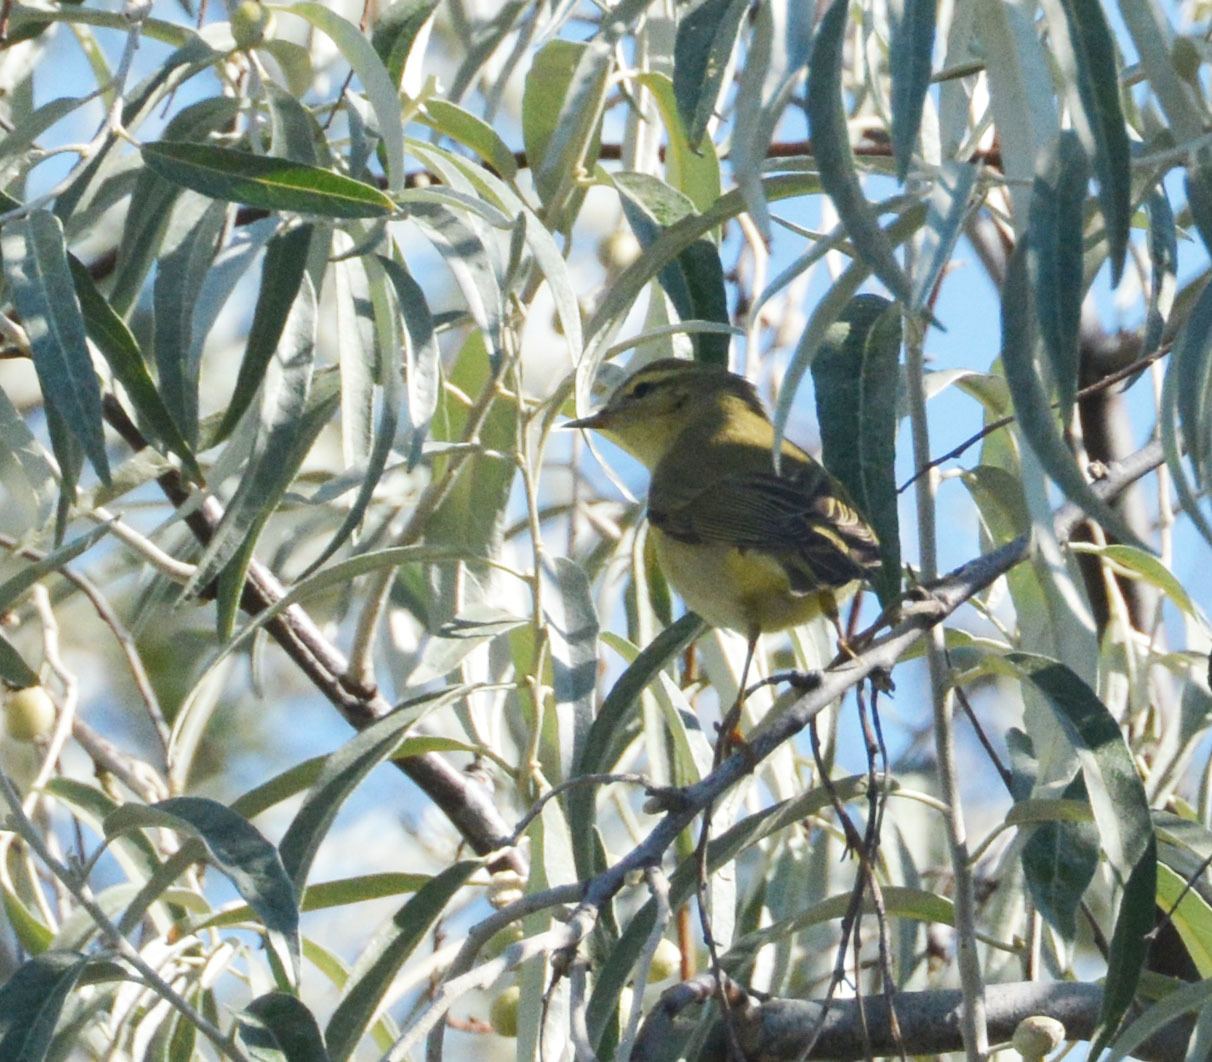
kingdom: Animalia
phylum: Chordata
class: Aves
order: Passeriformes
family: Phylloscopidae
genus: Phylloscopus
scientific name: Phylloscopus trochilus
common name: Willow warbler
